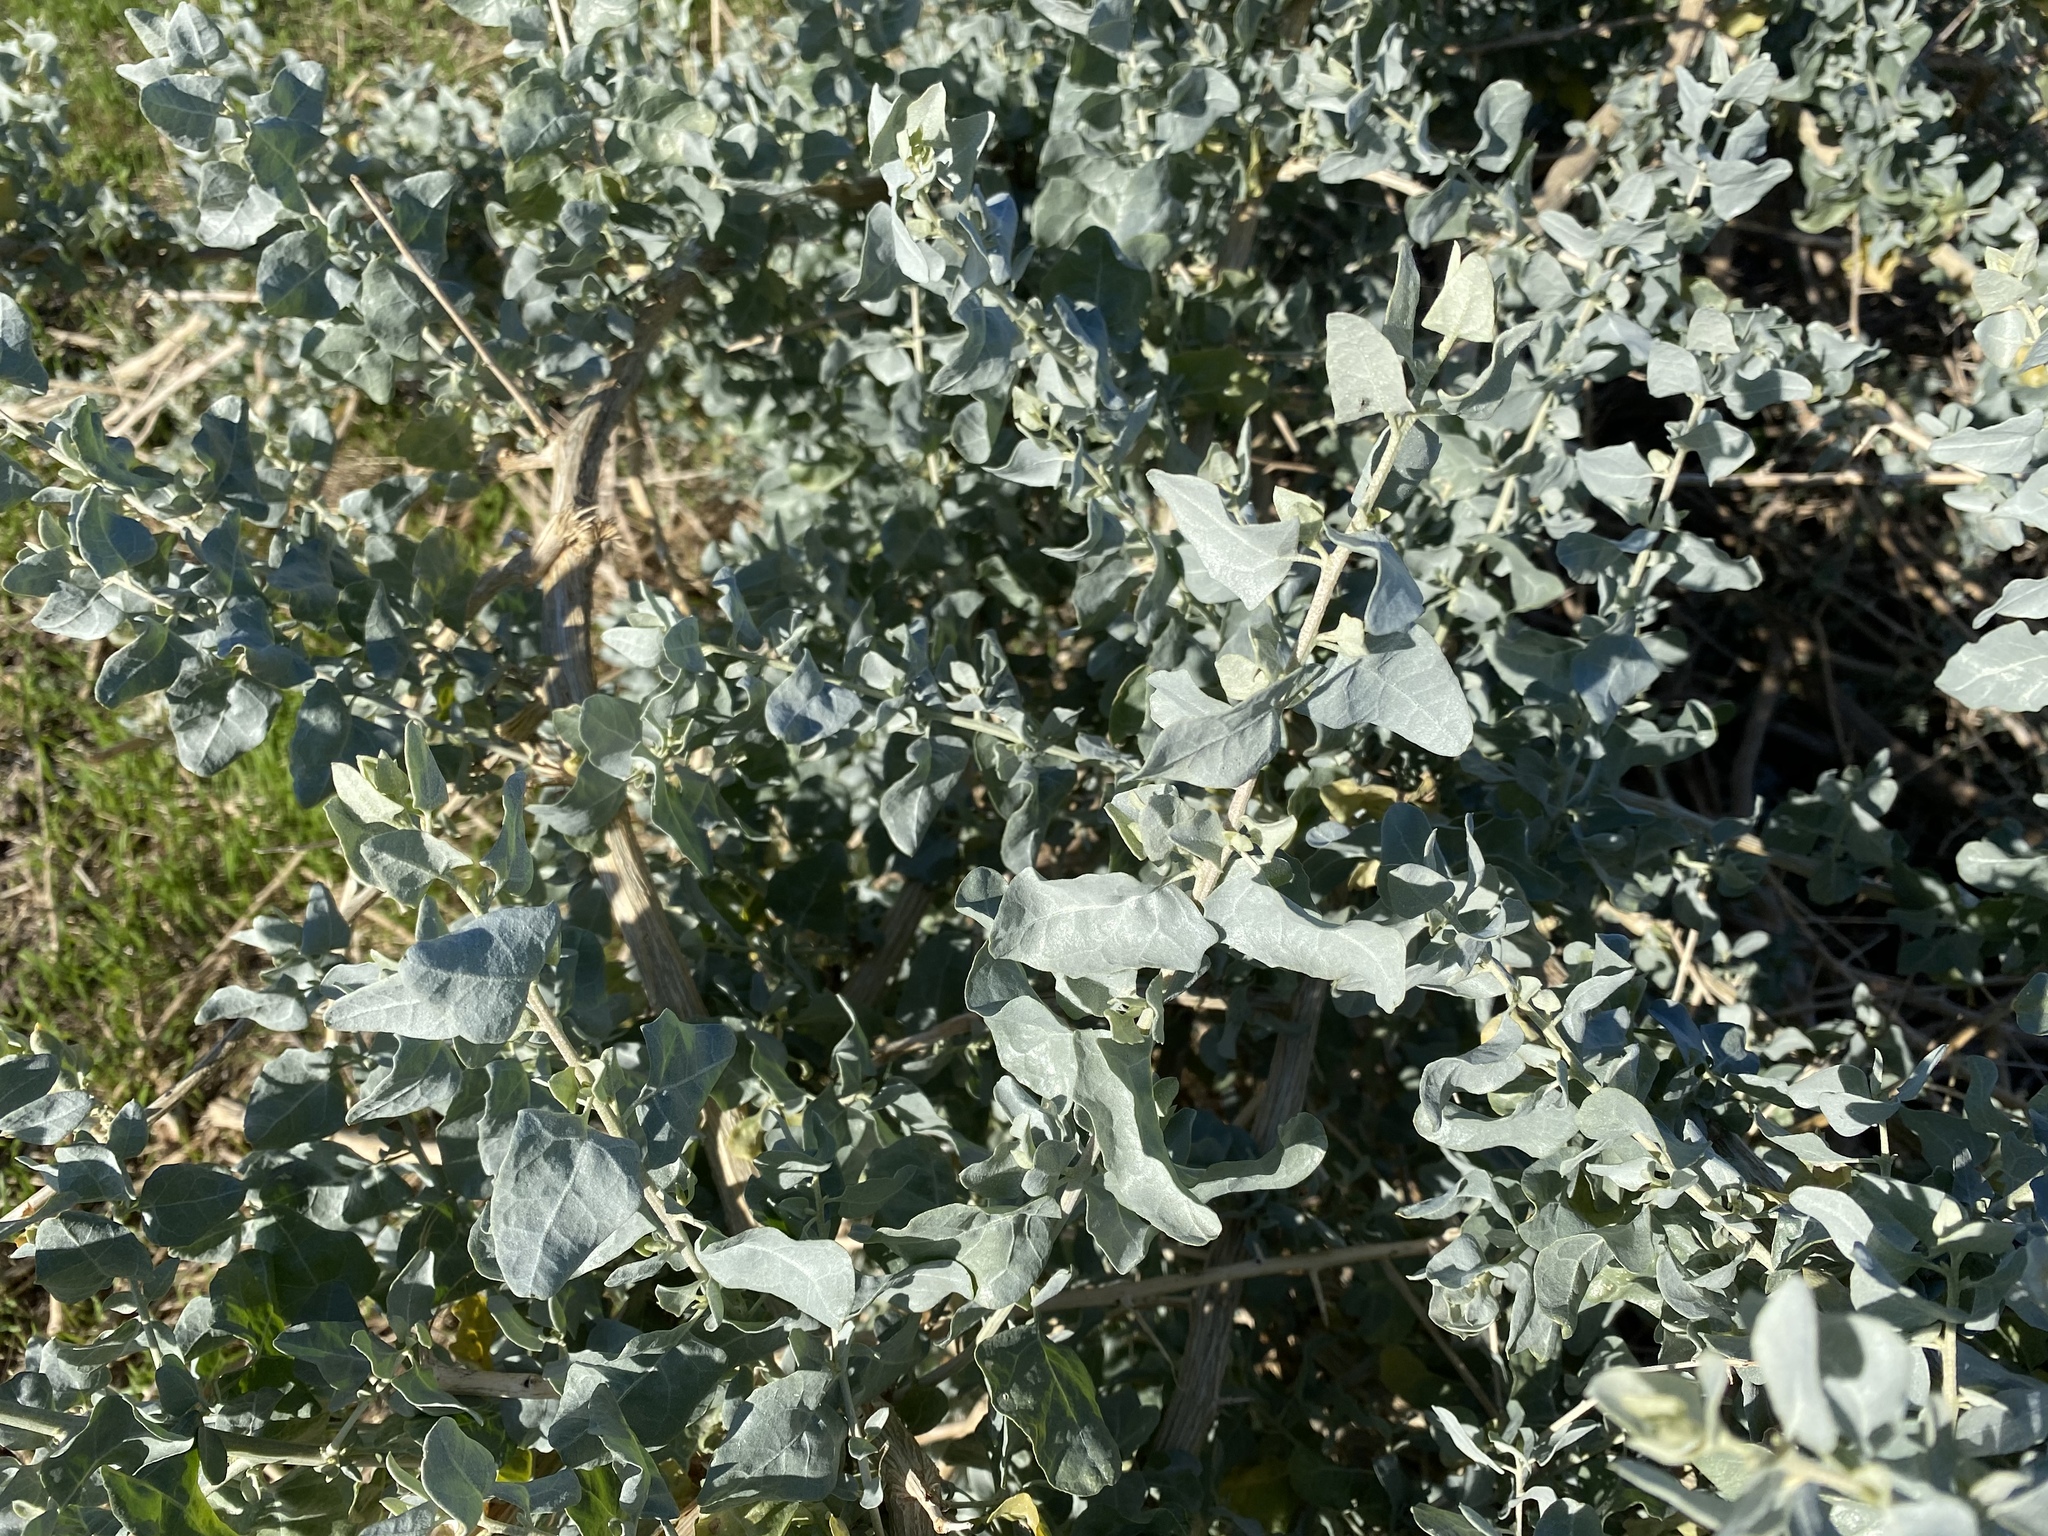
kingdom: Plantae
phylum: Tracheophyta
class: Magnoliopsida
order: Caryophyllales
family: Amaranthaceae
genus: Atriplex
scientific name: Atriplex lentiformis
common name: Big saltbush
